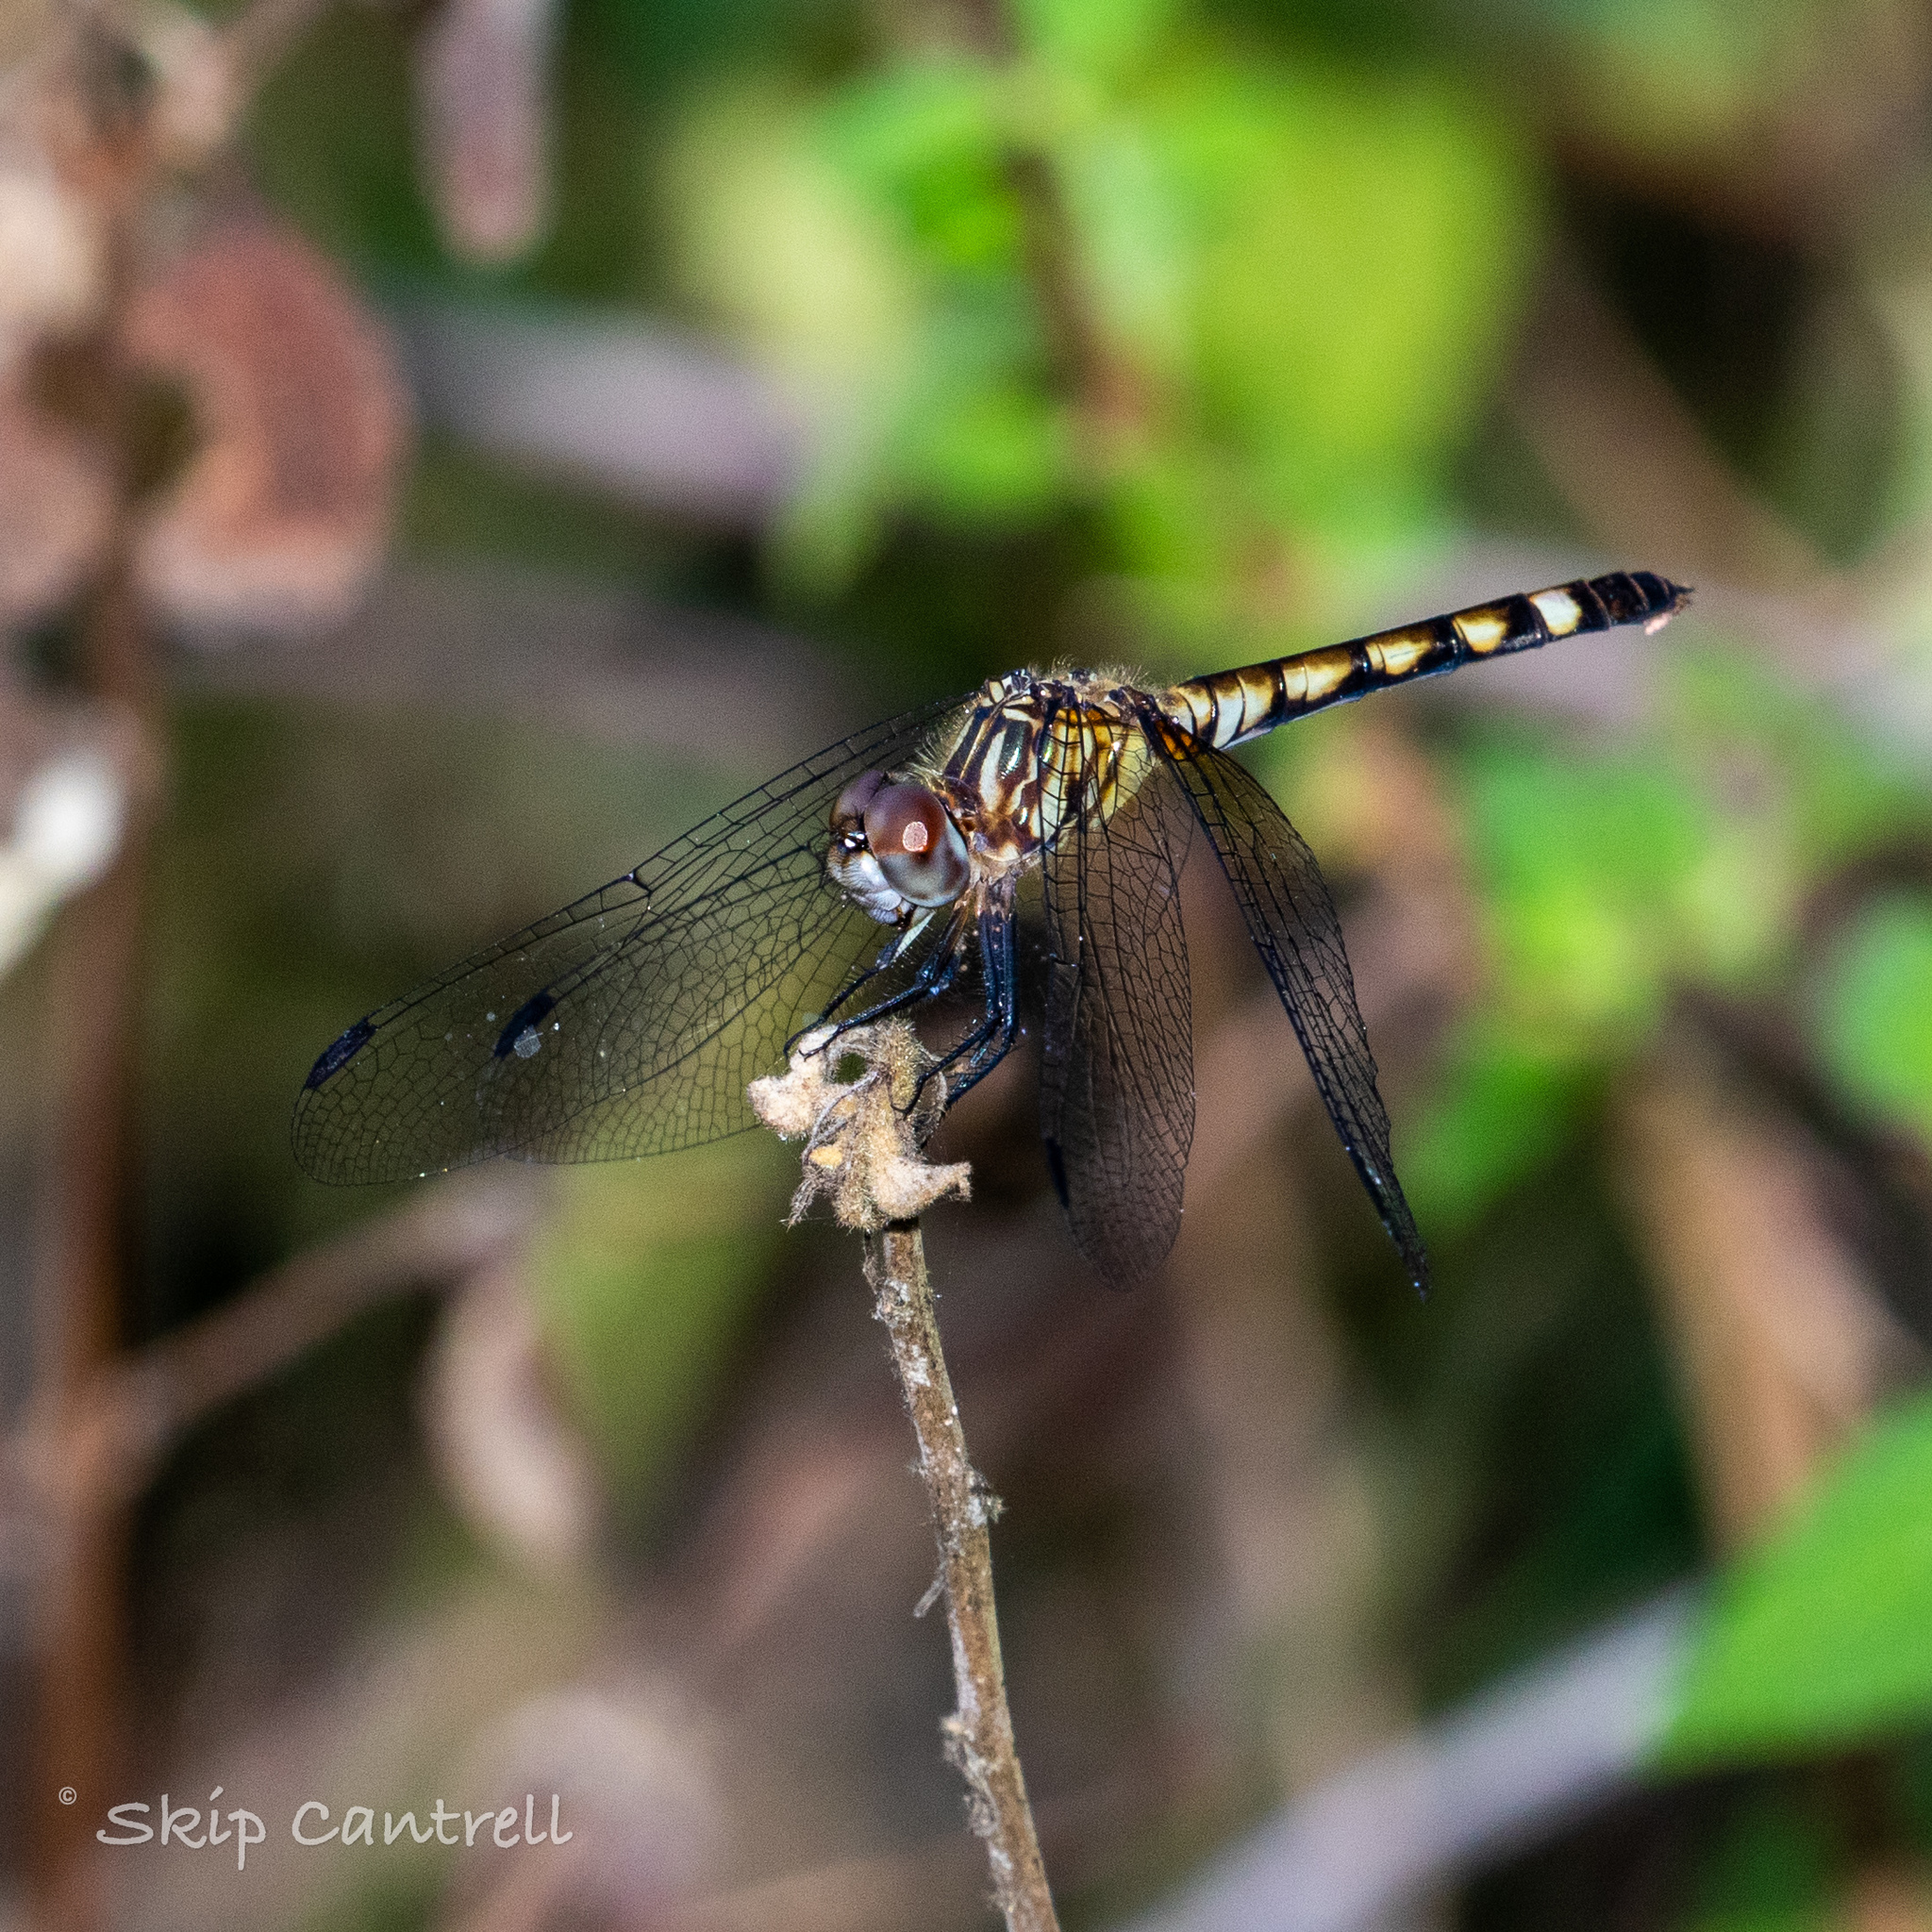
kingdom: Animalia
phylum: Arthropoda
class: Insecta
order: Odonata
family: Libellulidae
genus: Micrathyria
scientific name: Micrathyria hagenii
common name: Thornbush dasher
